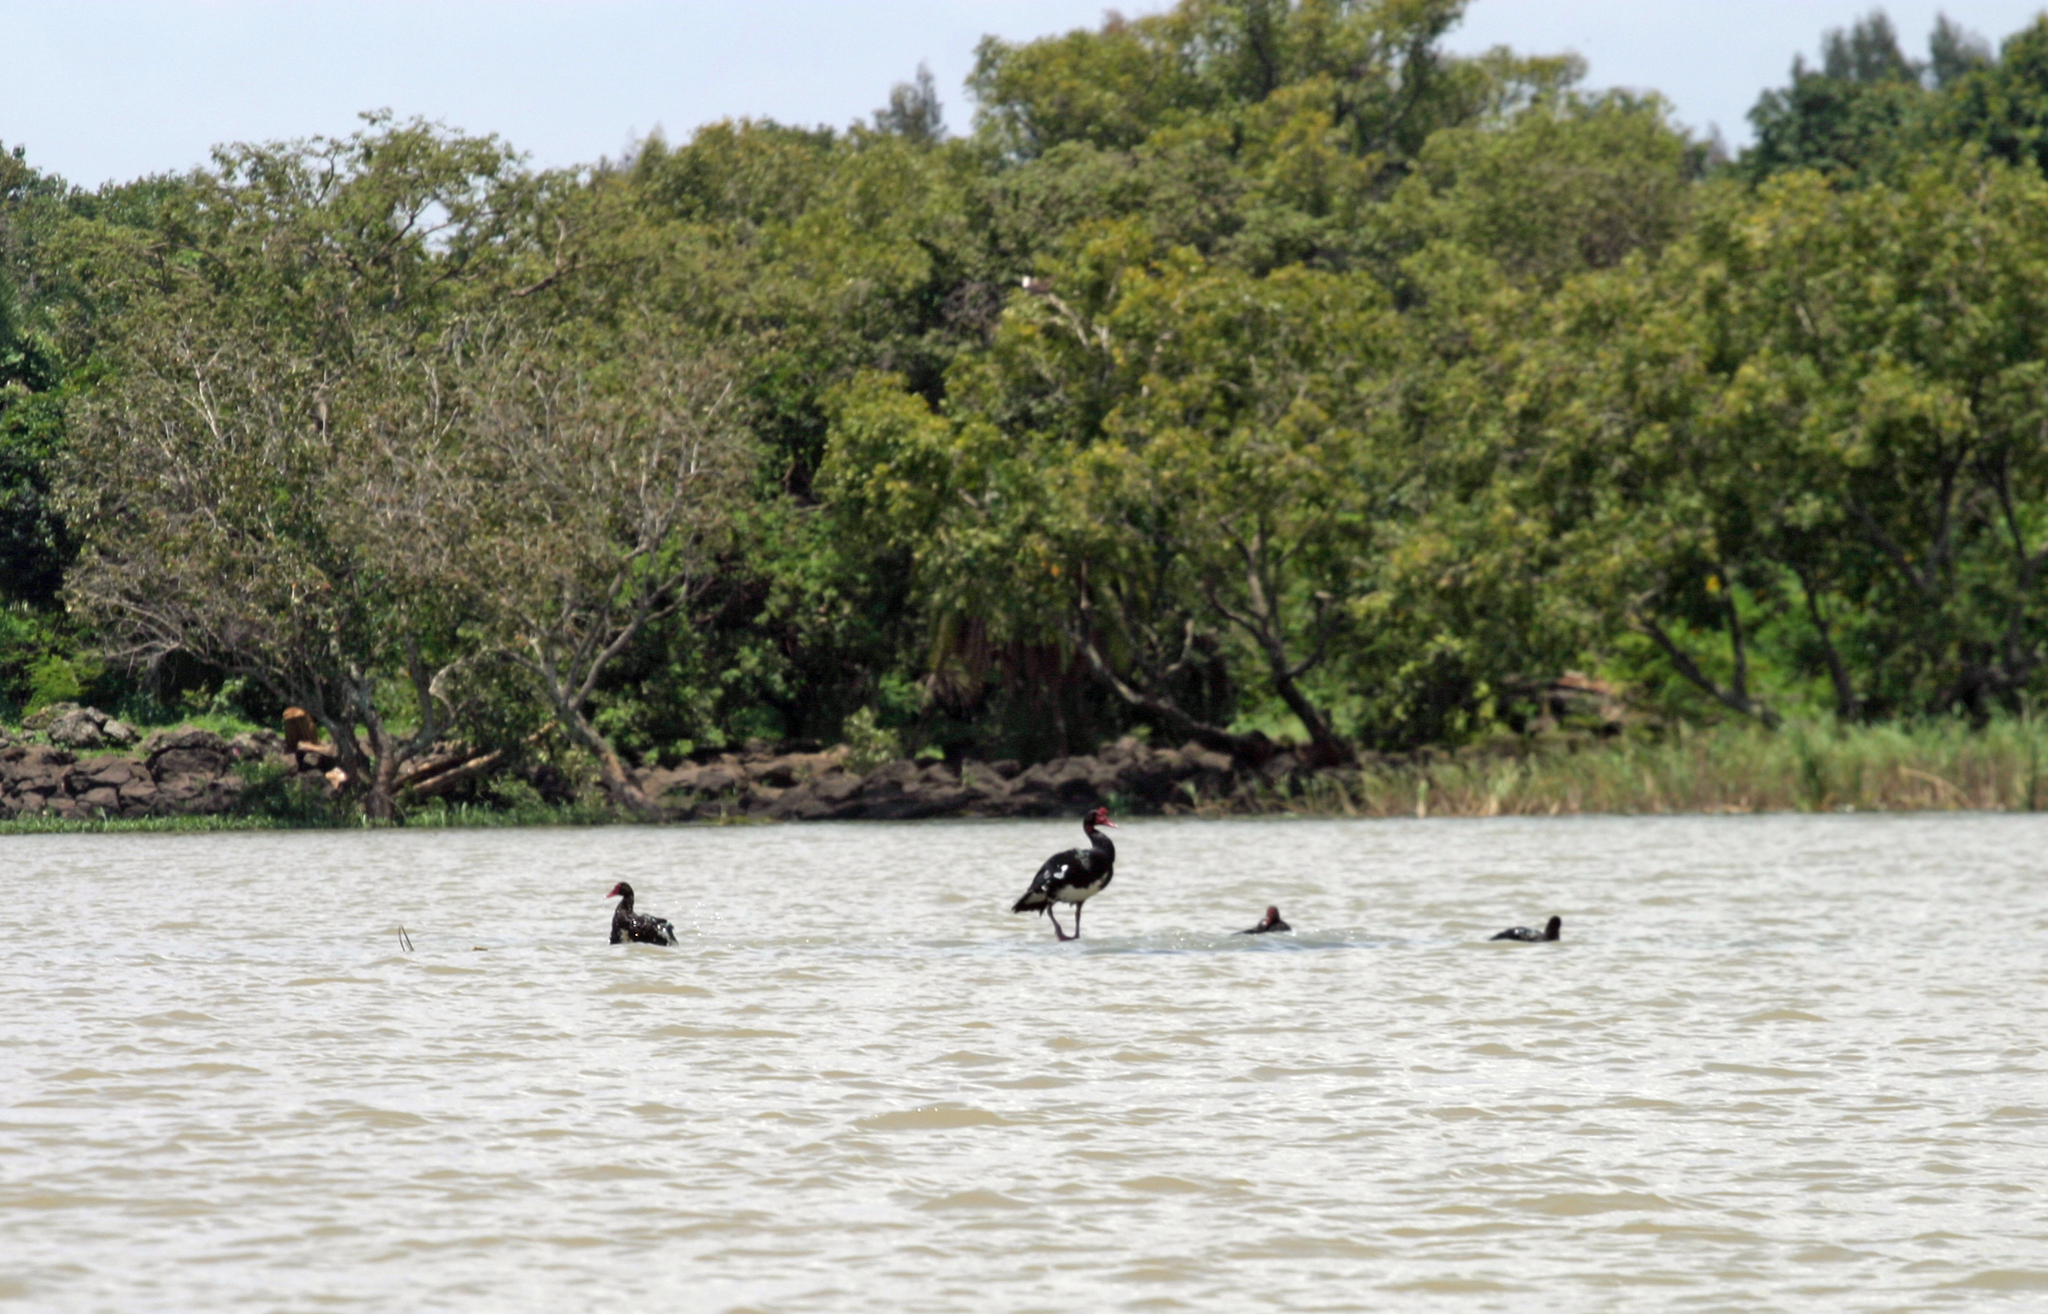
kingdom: Animalia
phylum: Chordata
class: Aves
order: Anseriformes
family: Anatidae
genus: Plectropterus
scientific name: Plectropterus gambensis
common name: Spur-winged goose
